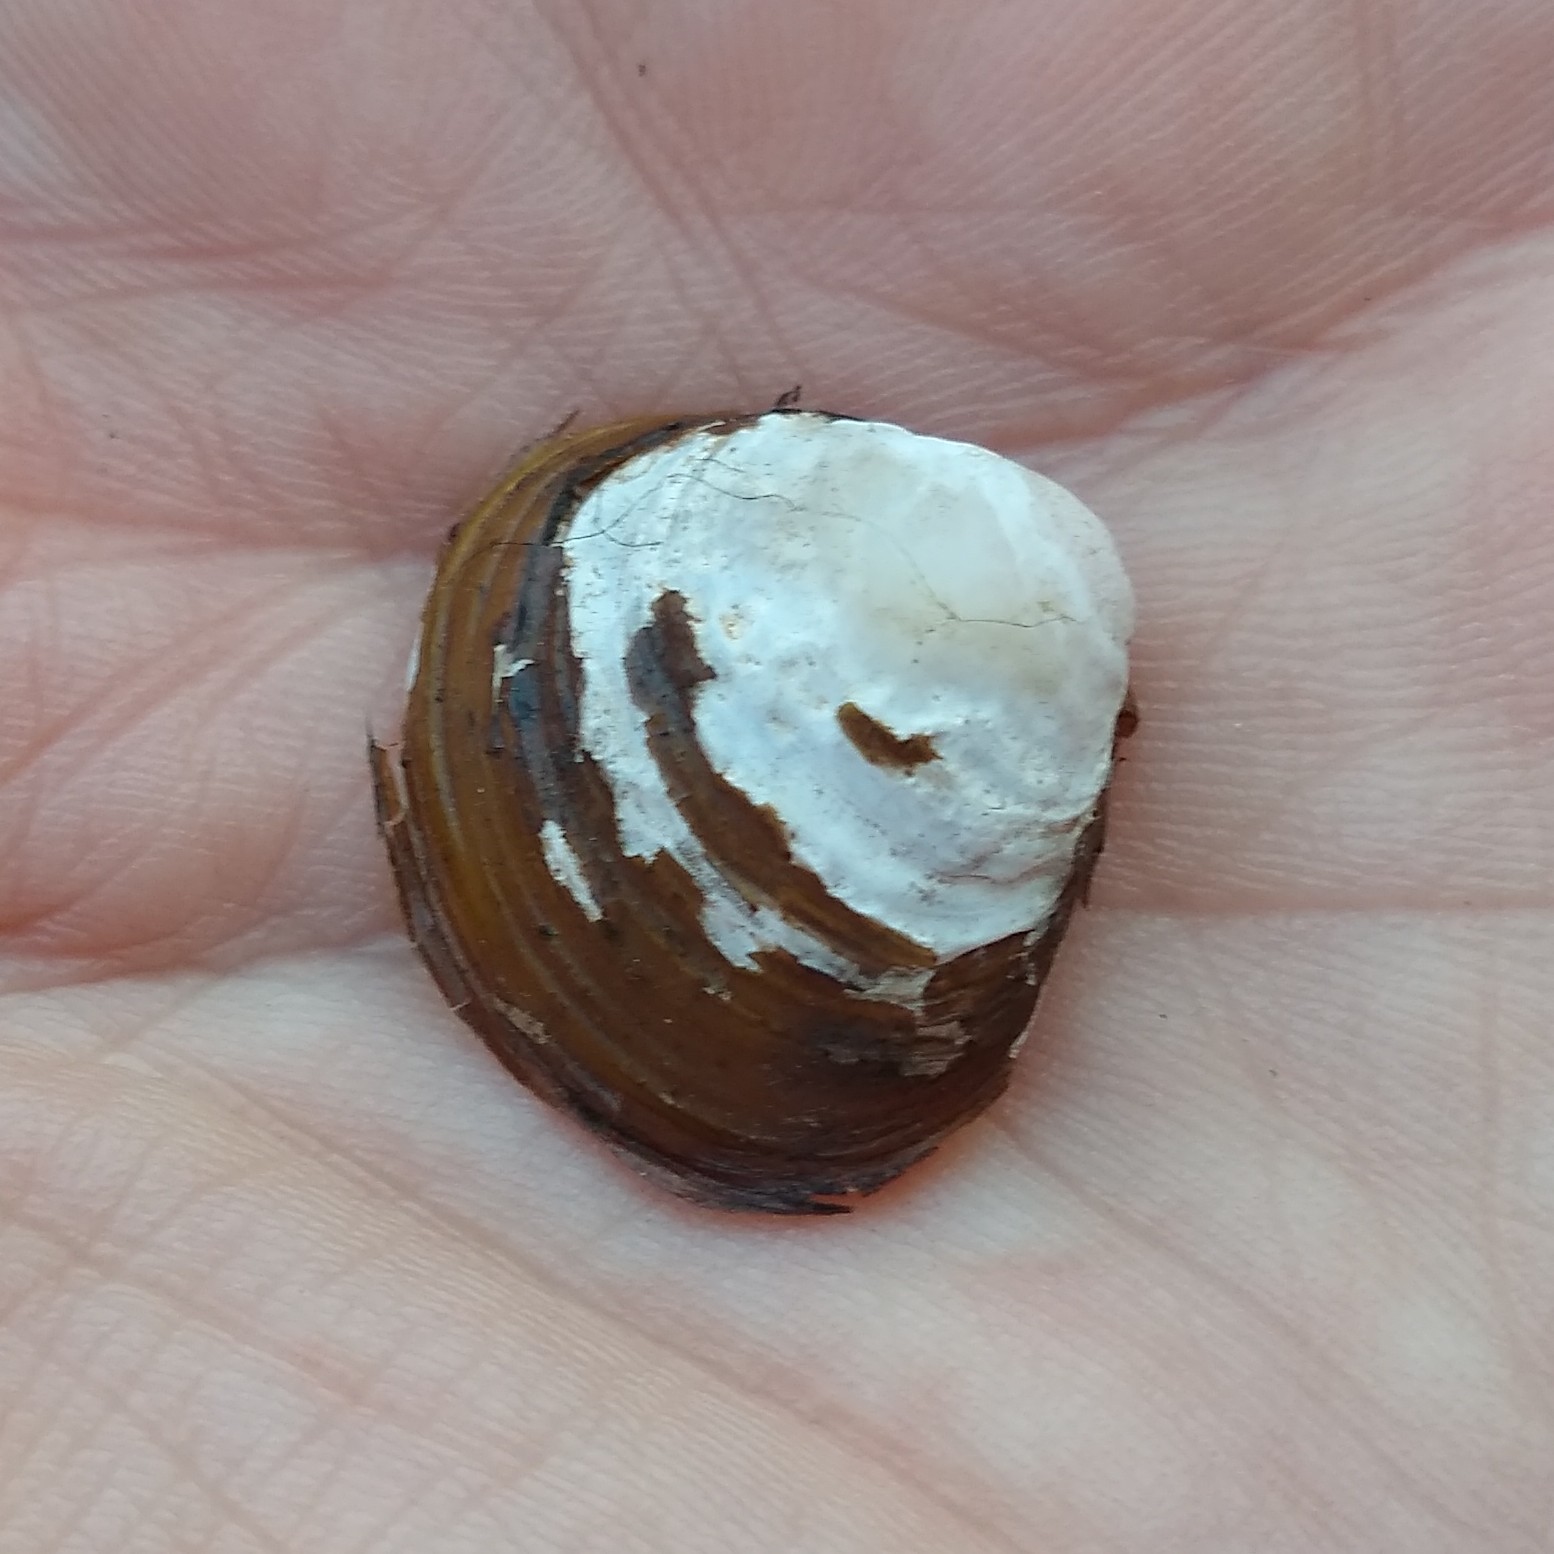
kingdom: Animalia
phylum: Mollusca
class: Bivalvia
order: Venerida
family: Cyrenidae
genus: Corbicula
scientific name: Corbicula fluminea
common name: Asian clam
